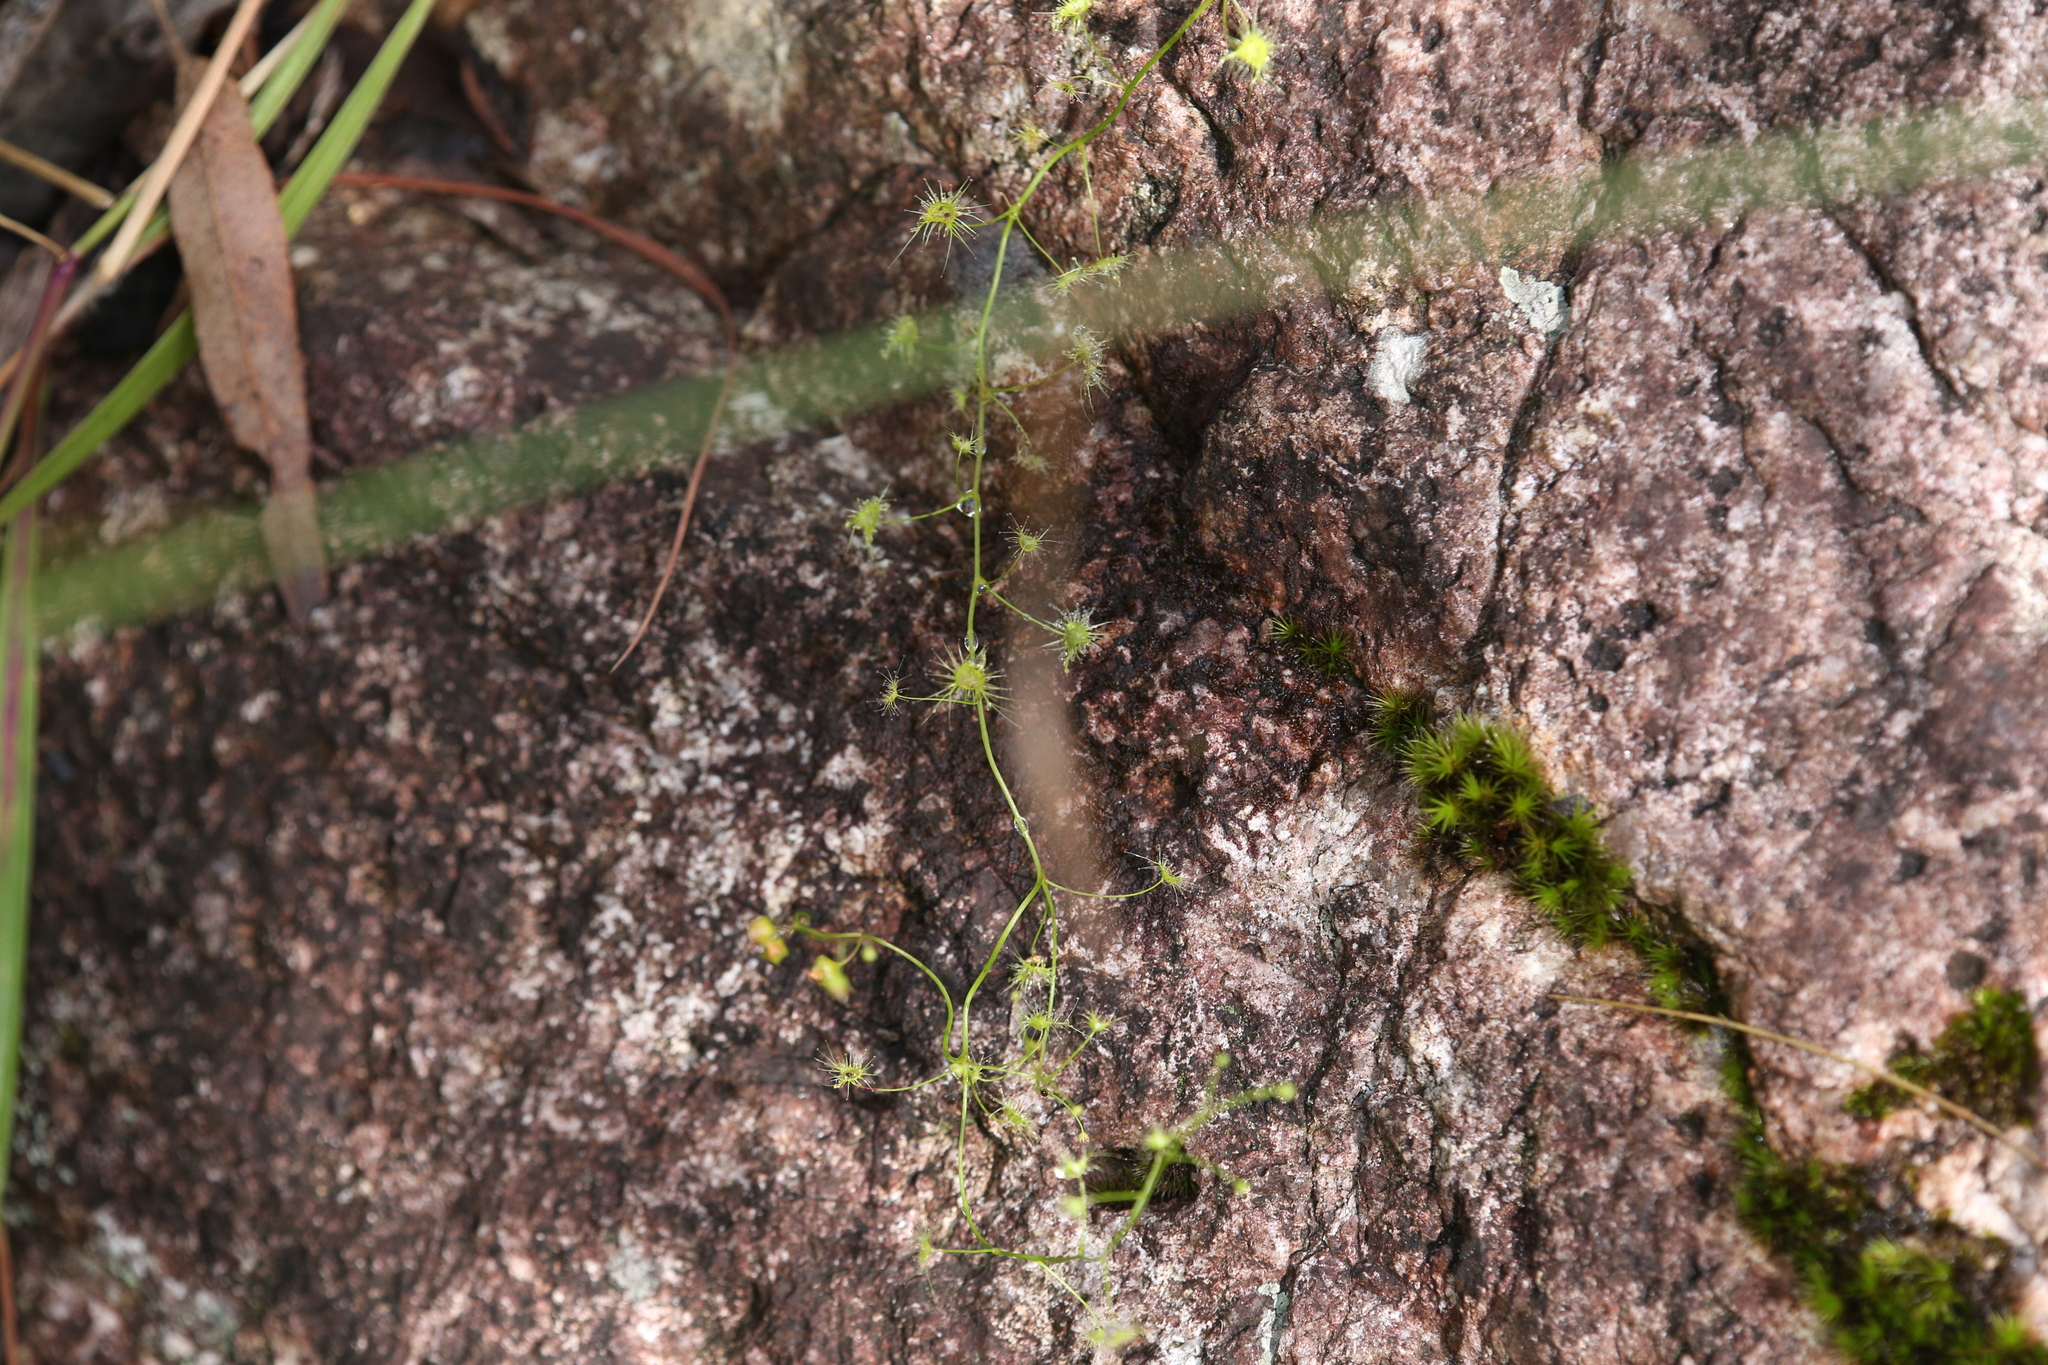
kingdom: Plantae
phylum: Tracheophyta
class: Magnoliopsida
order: Caryophyllales
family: Droseraceae
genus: Drosera
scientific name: Drosera peltata
